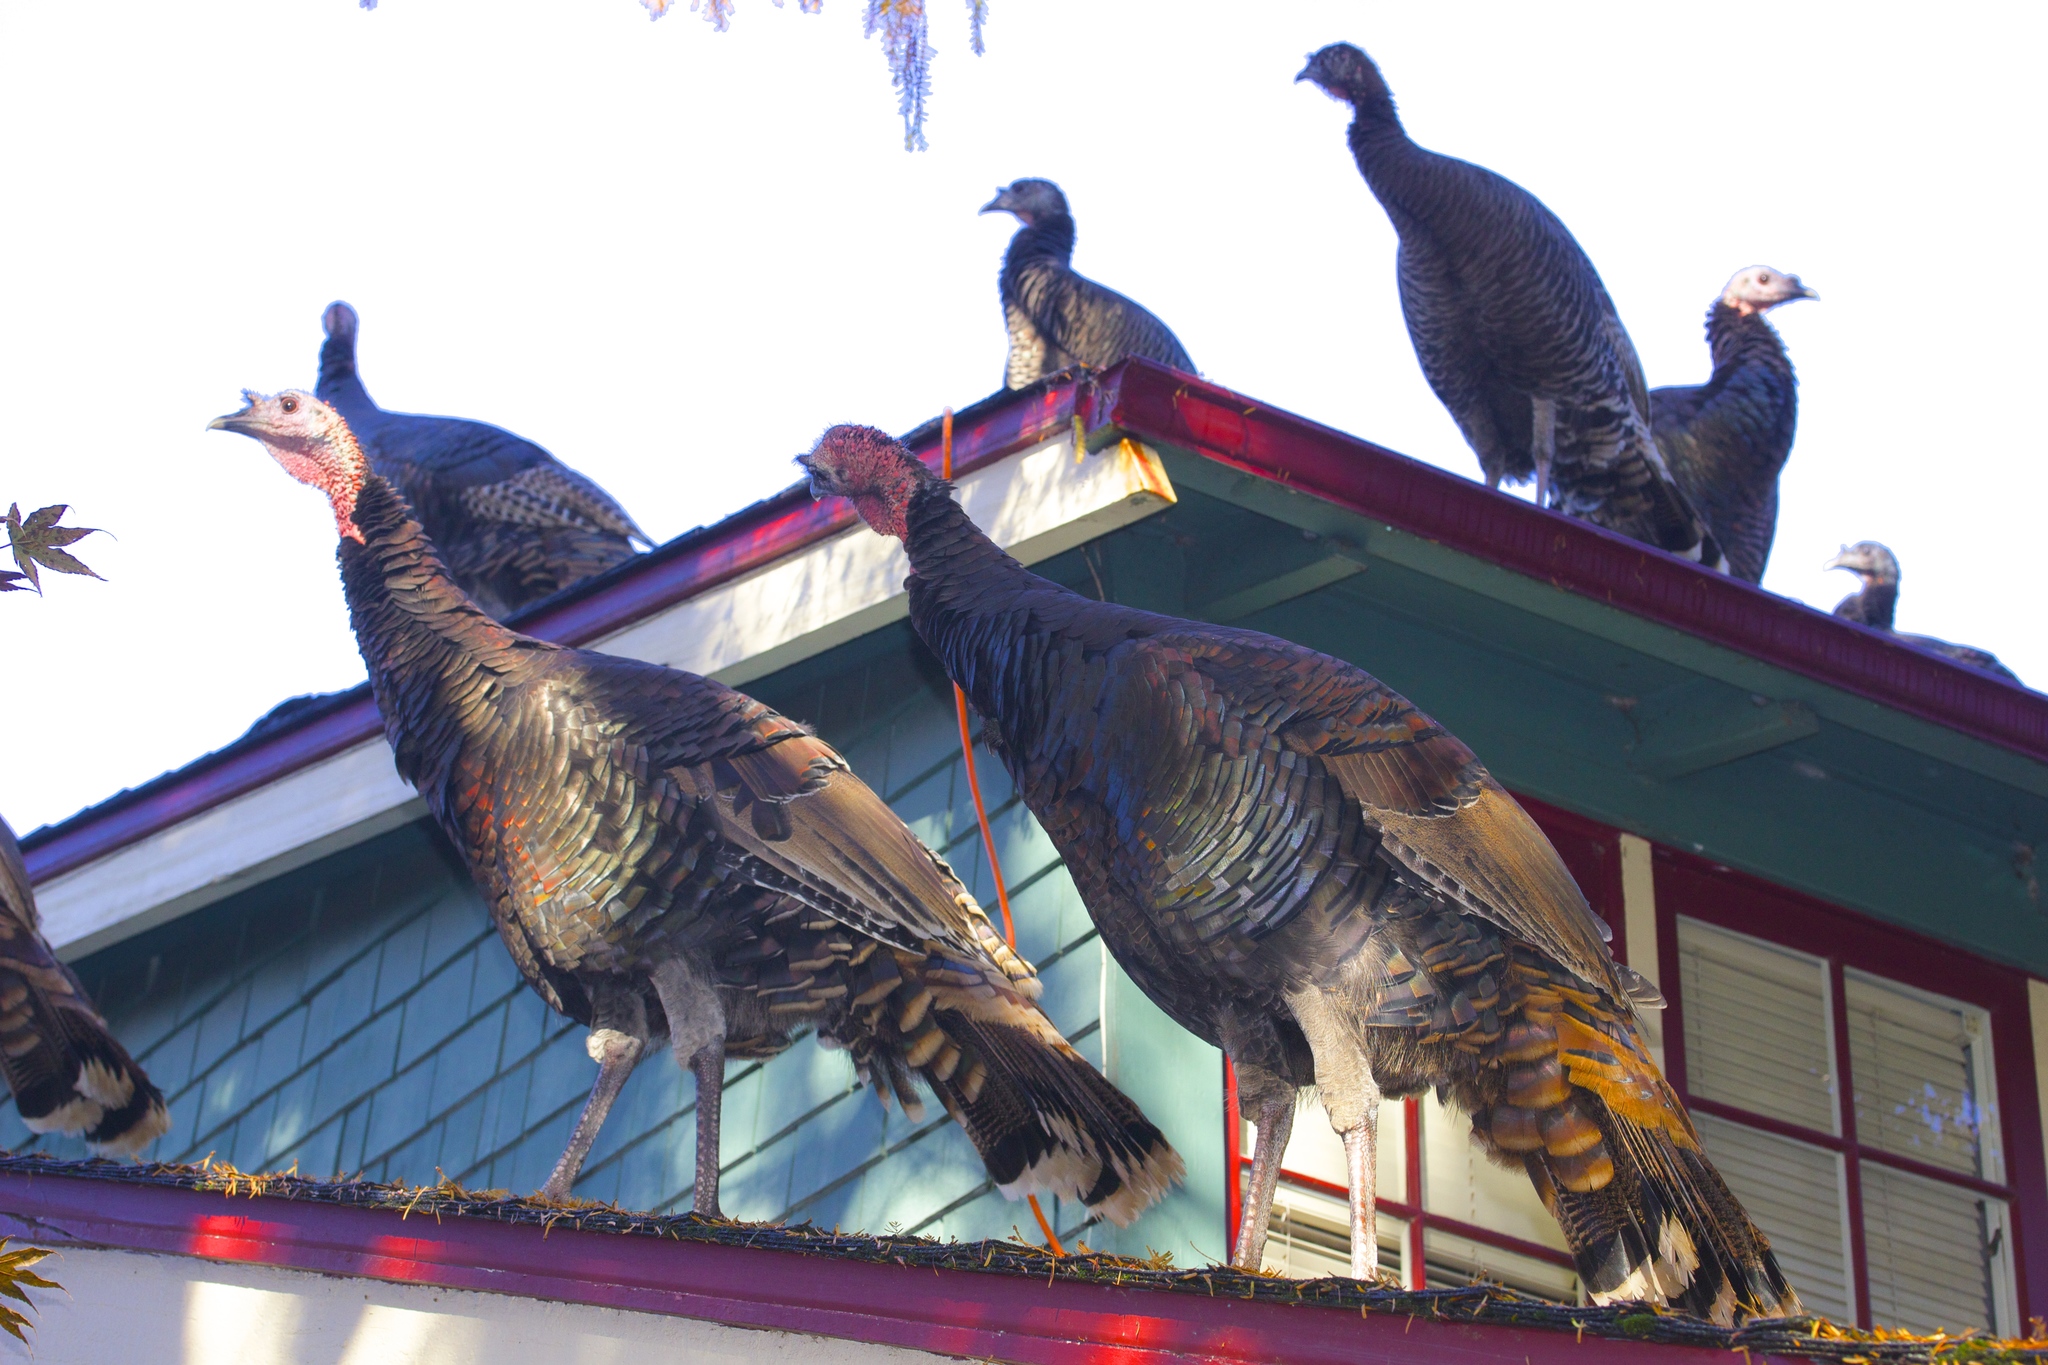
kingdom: Animalia
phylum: Chordata
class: Aves
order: Galliformes
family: Phasianidae
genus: Meleagris
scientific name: Meleagris gallopavo
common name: Wild turkey
